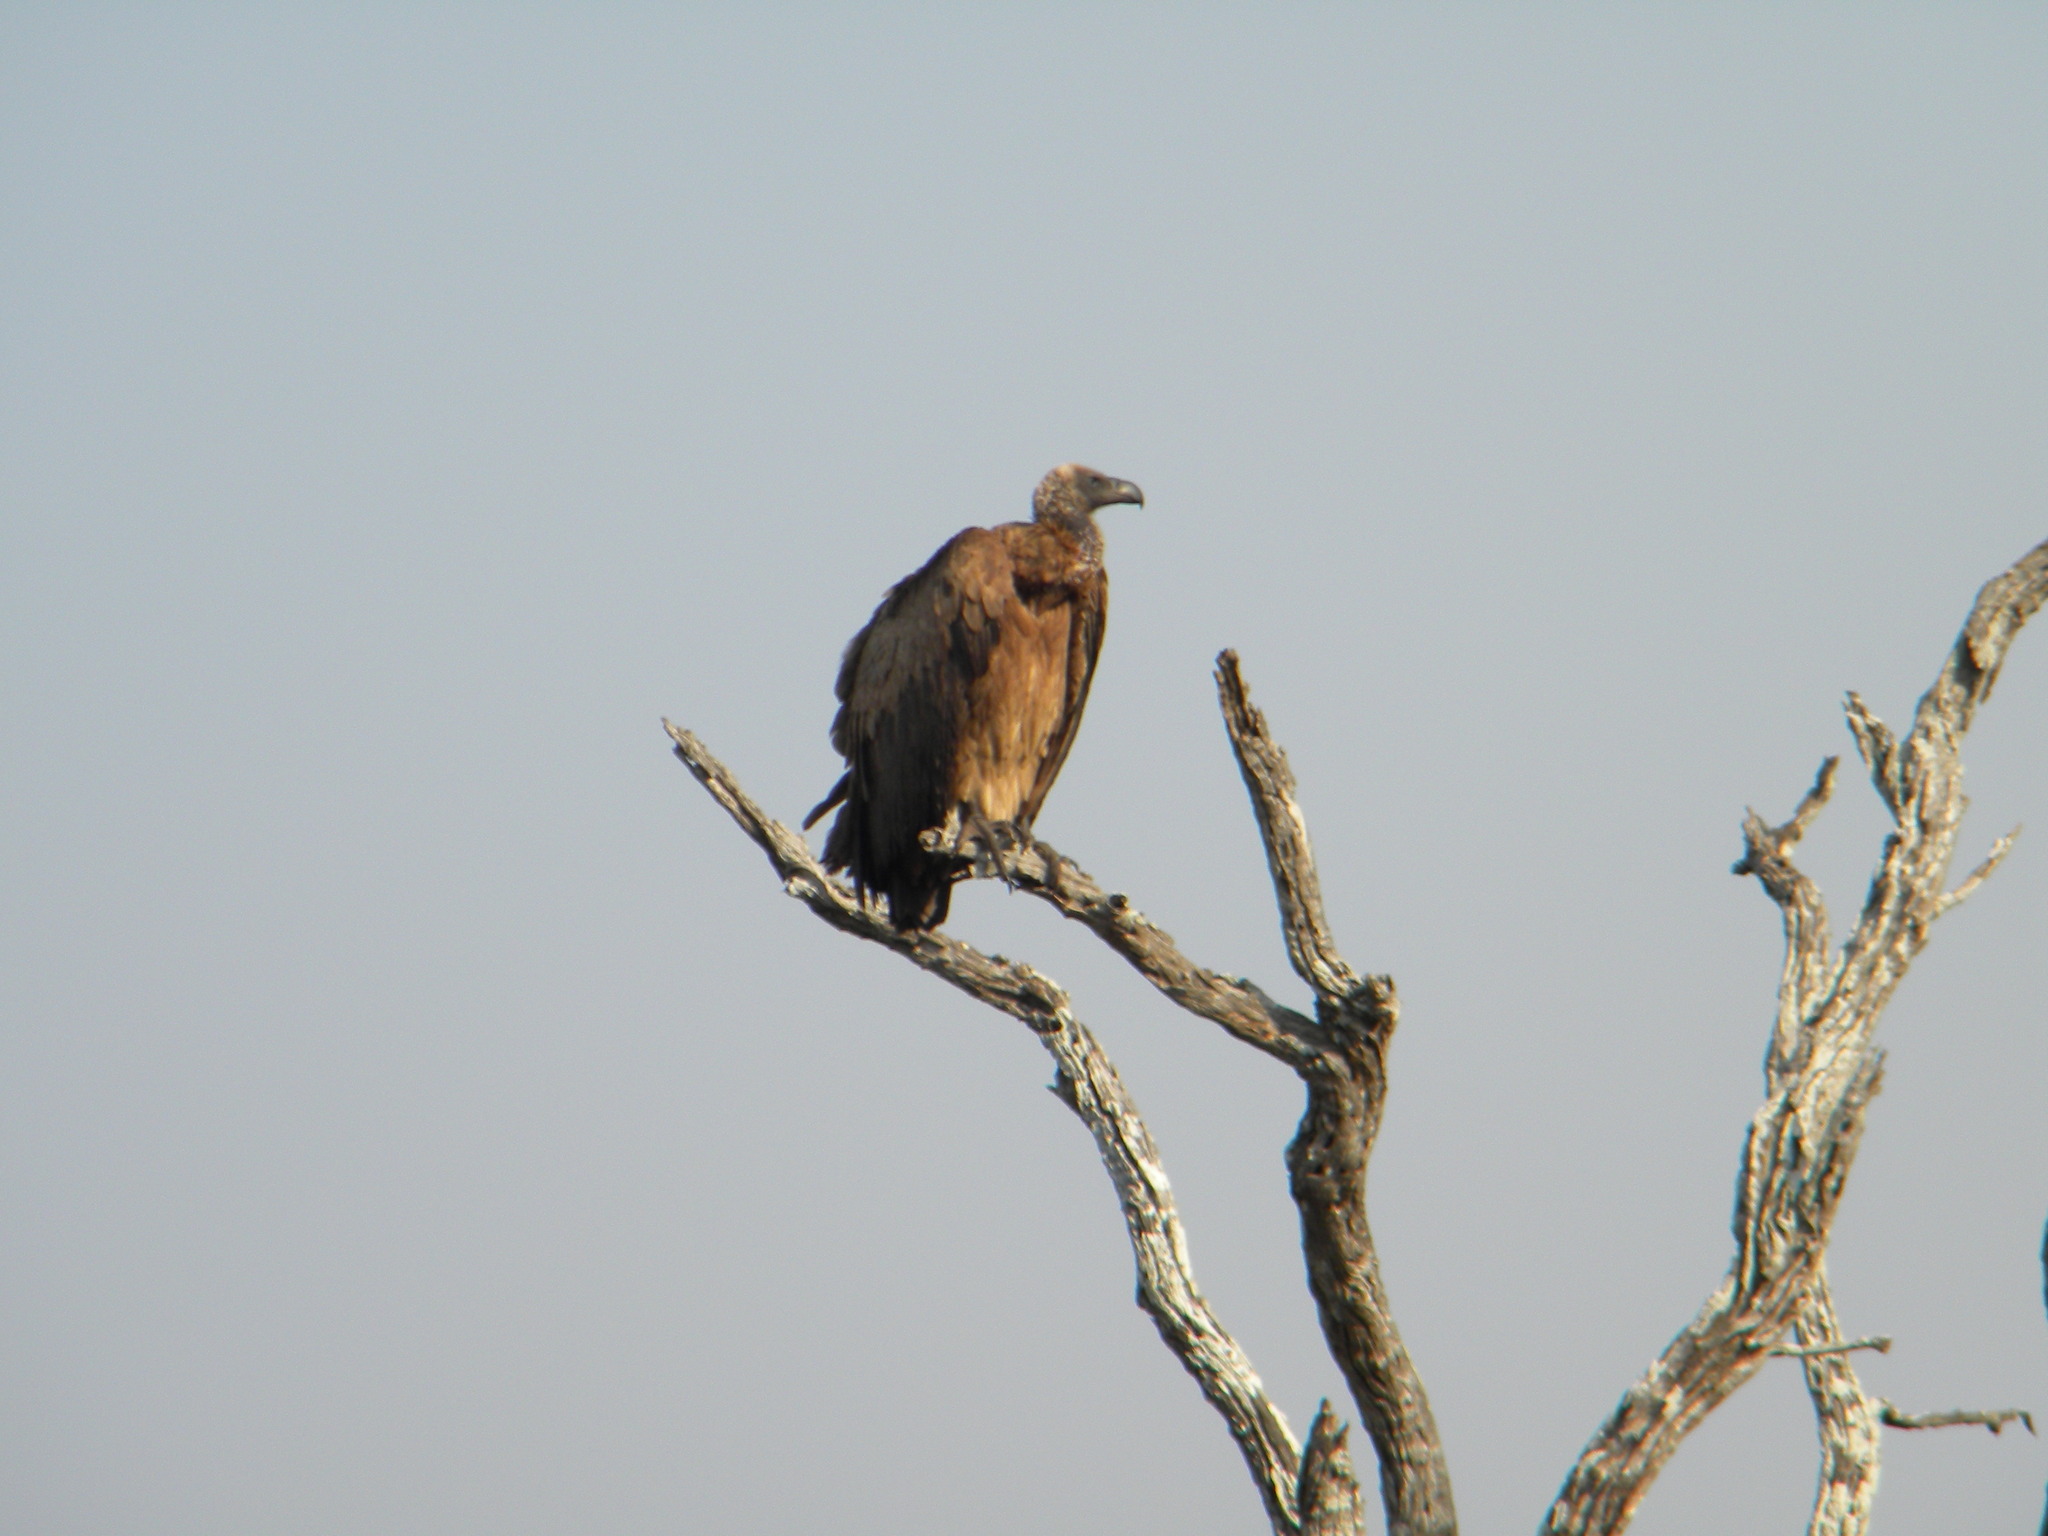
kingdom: Animalia
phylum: Chordata
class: Aves
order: Accipitriformes
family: Accipitridae
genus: Gyps
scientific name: Gyps africanus
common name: White-backed vulture
